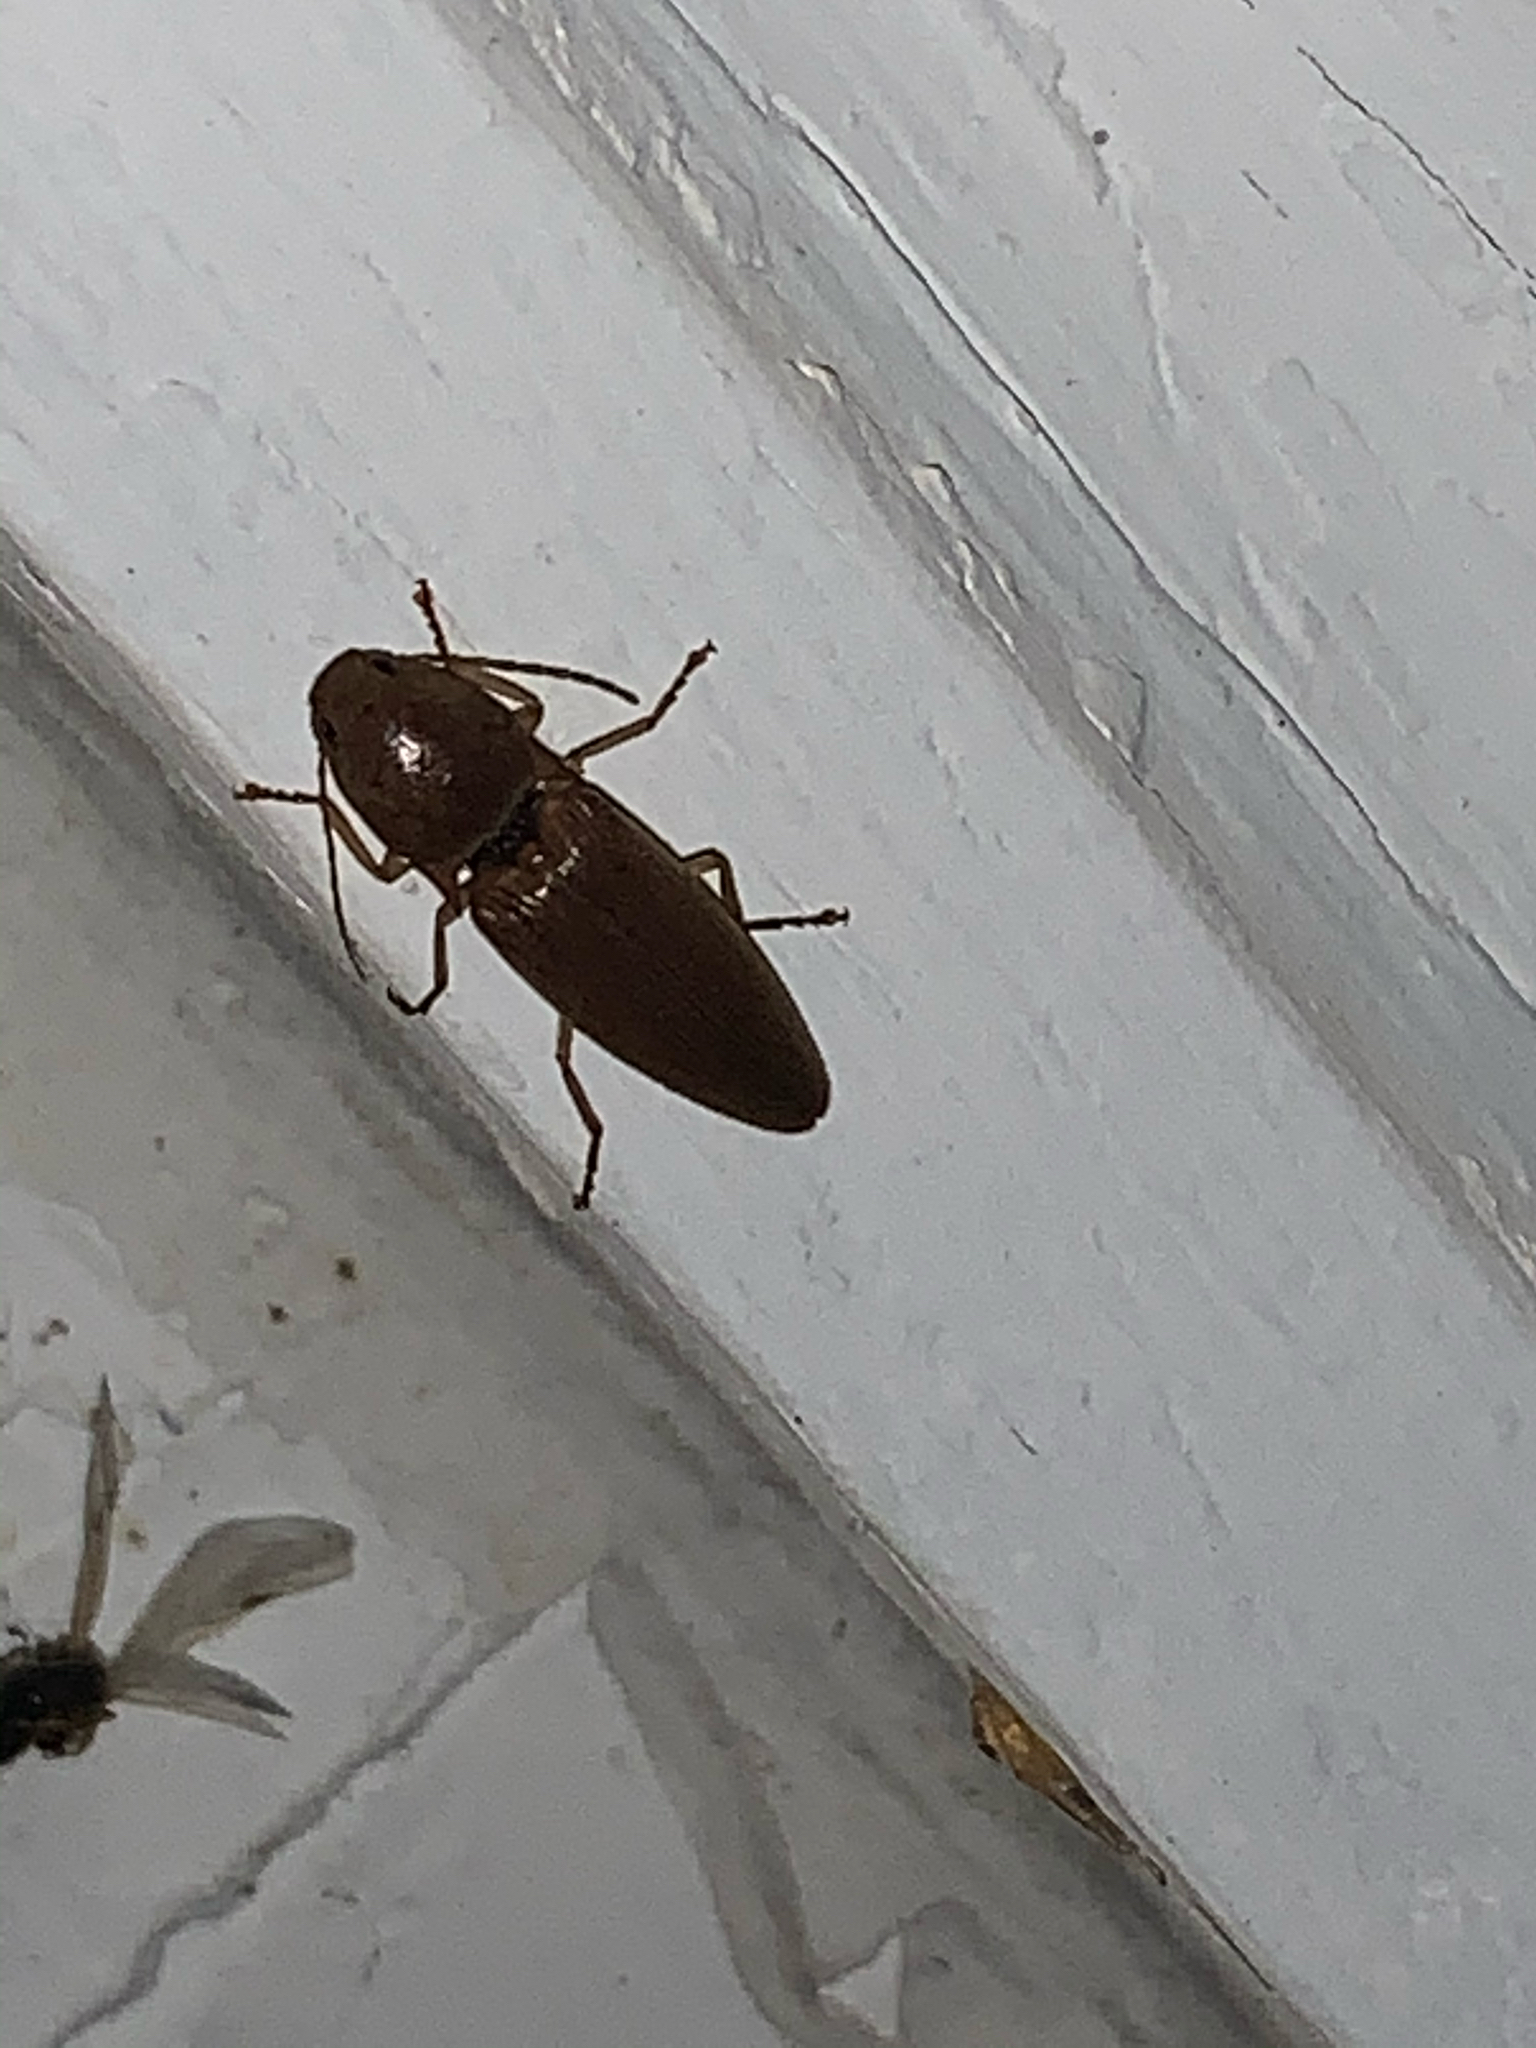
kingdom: Animalia
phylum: Arthropoda
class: Insecta
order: Coleoptera
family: Elateridae
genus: Monocrepidius
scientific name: Monocrepidius lividus
